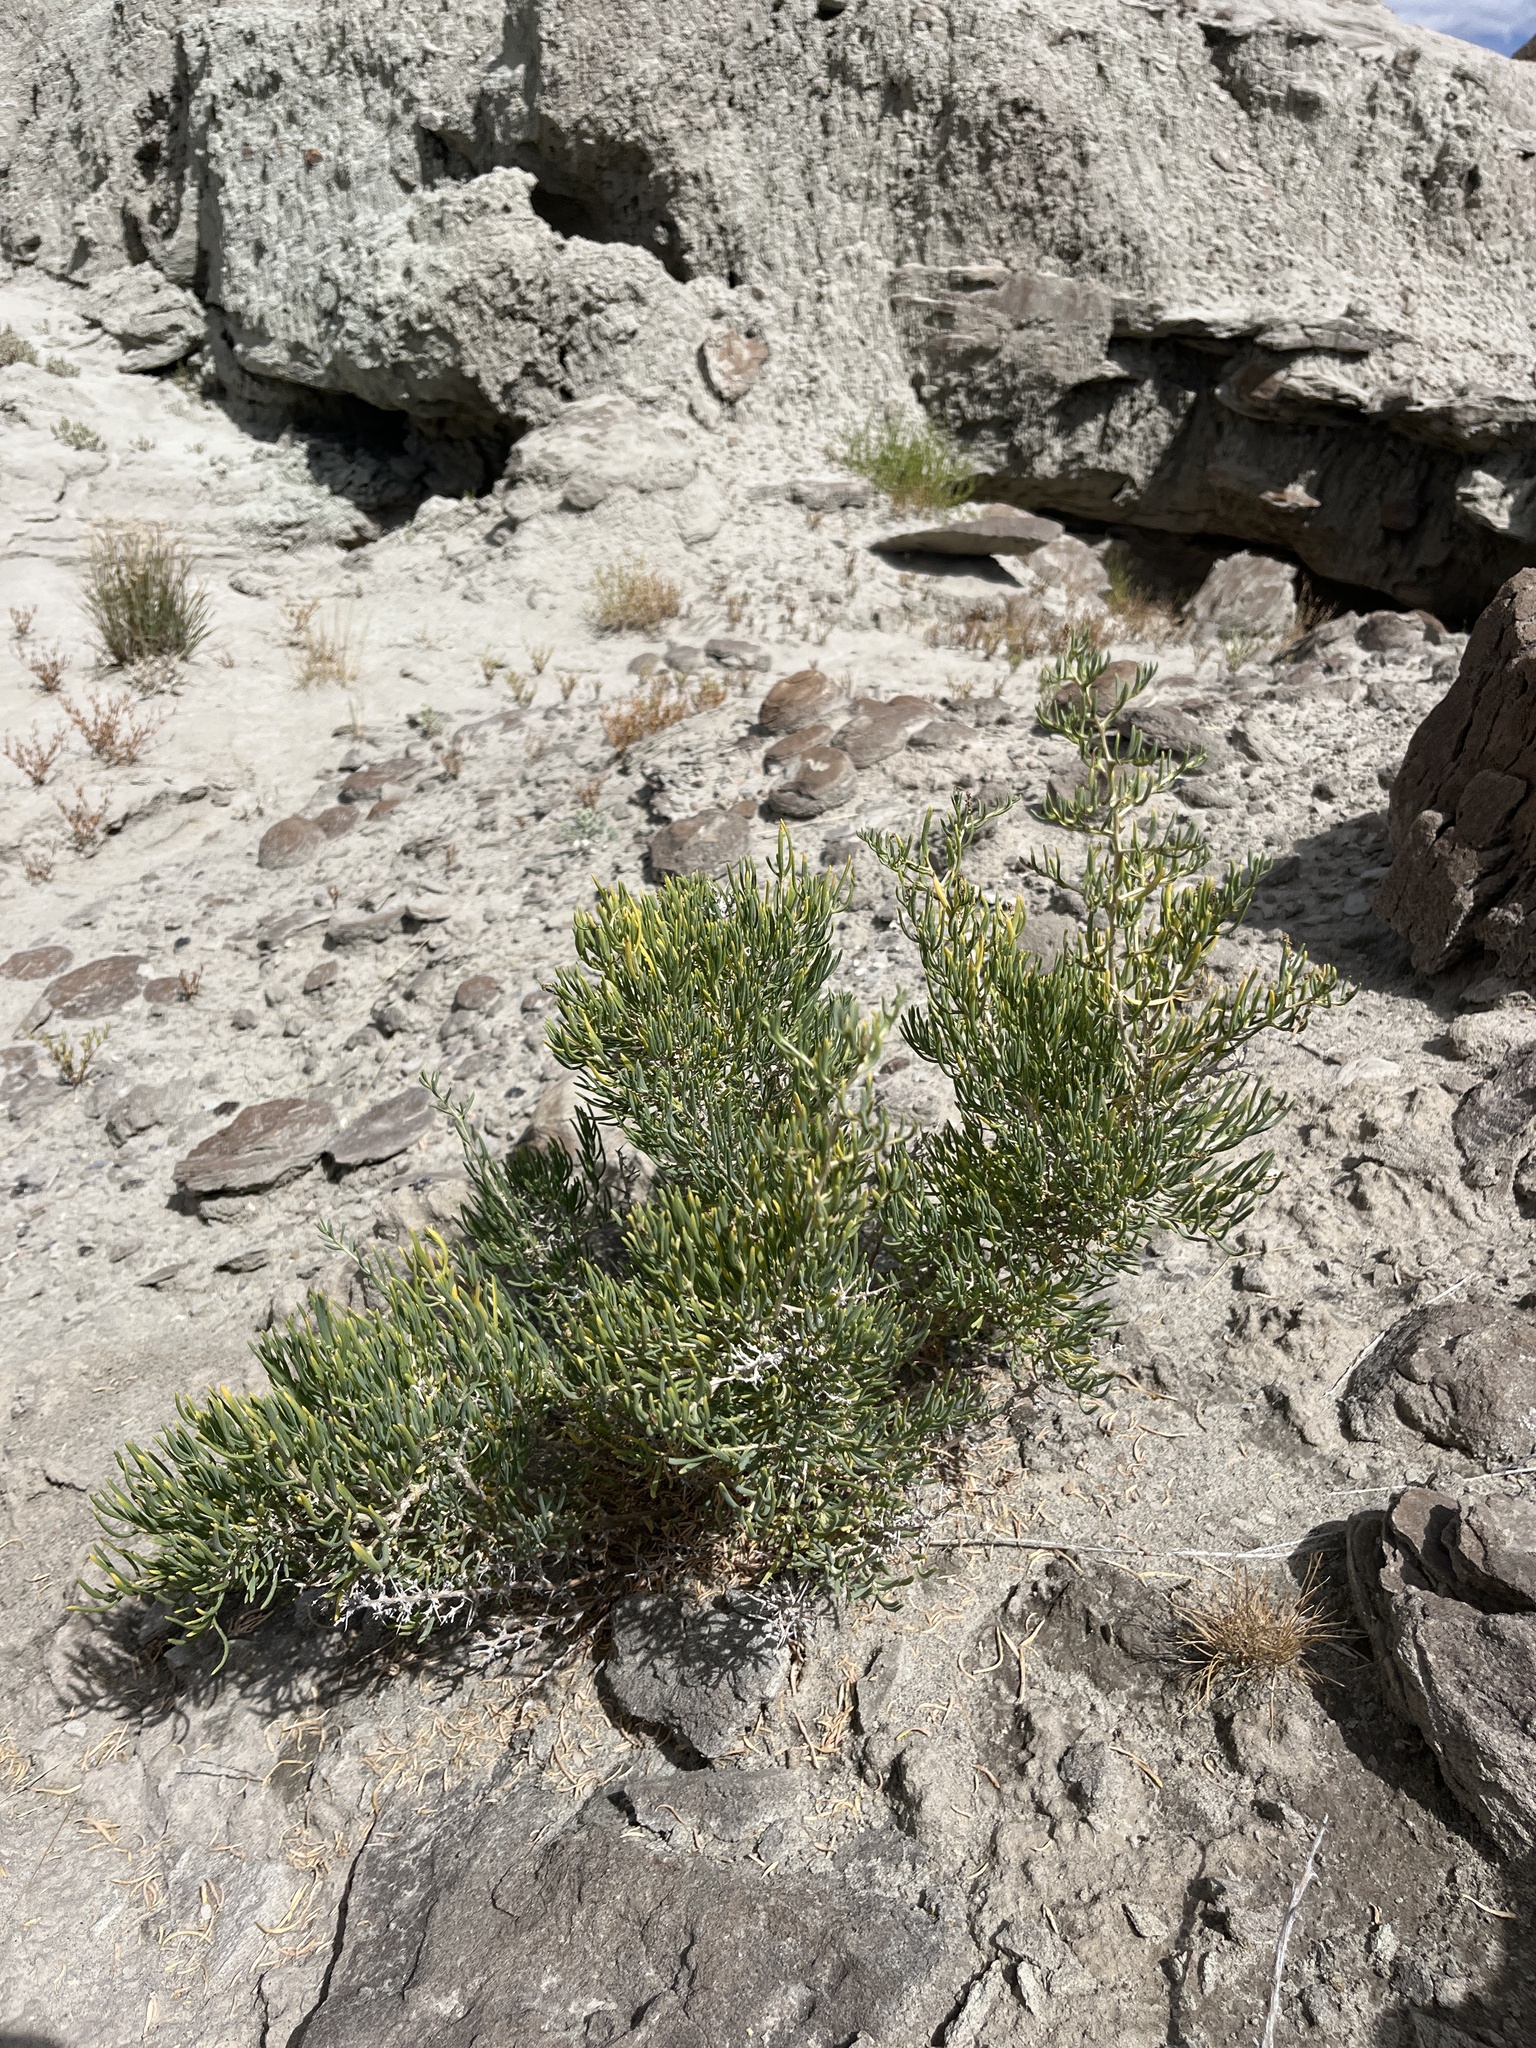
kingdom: Plantae
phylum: Tracheophyta
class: Magnoliopsida
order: Caryophyllales
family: Sarcobataceae
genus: Sarcobatus
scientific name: Sarcobatus vermiculatus
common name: Greasewood
